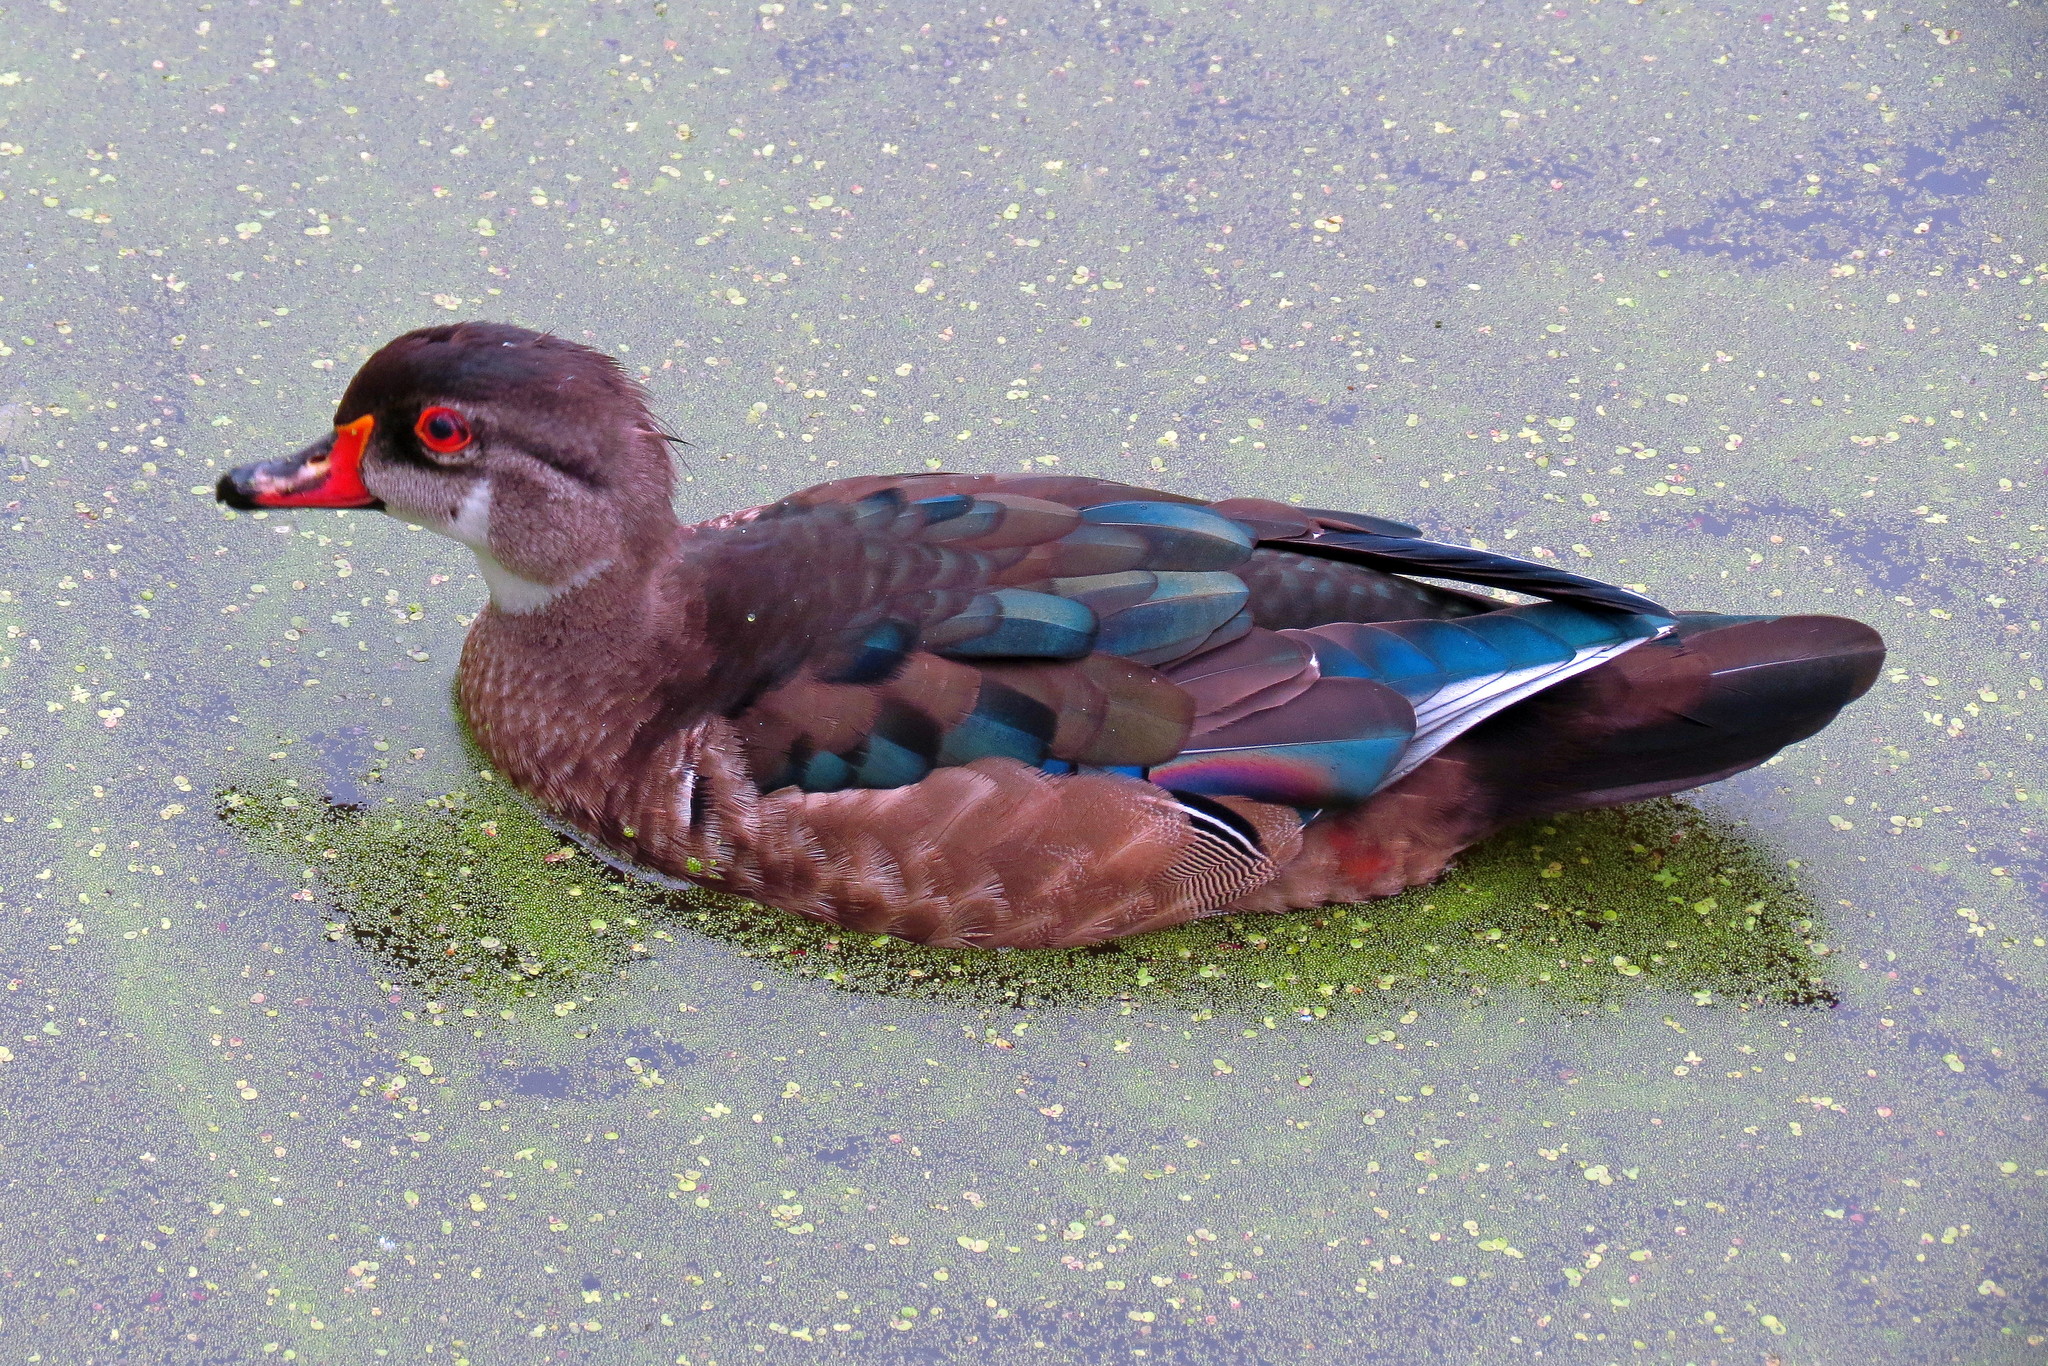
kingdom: Animalia
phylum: Chordata
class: Aves
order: Anseriformes
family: Anatidae
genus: Aix
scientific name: Aix sponsa
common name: Wood duck
